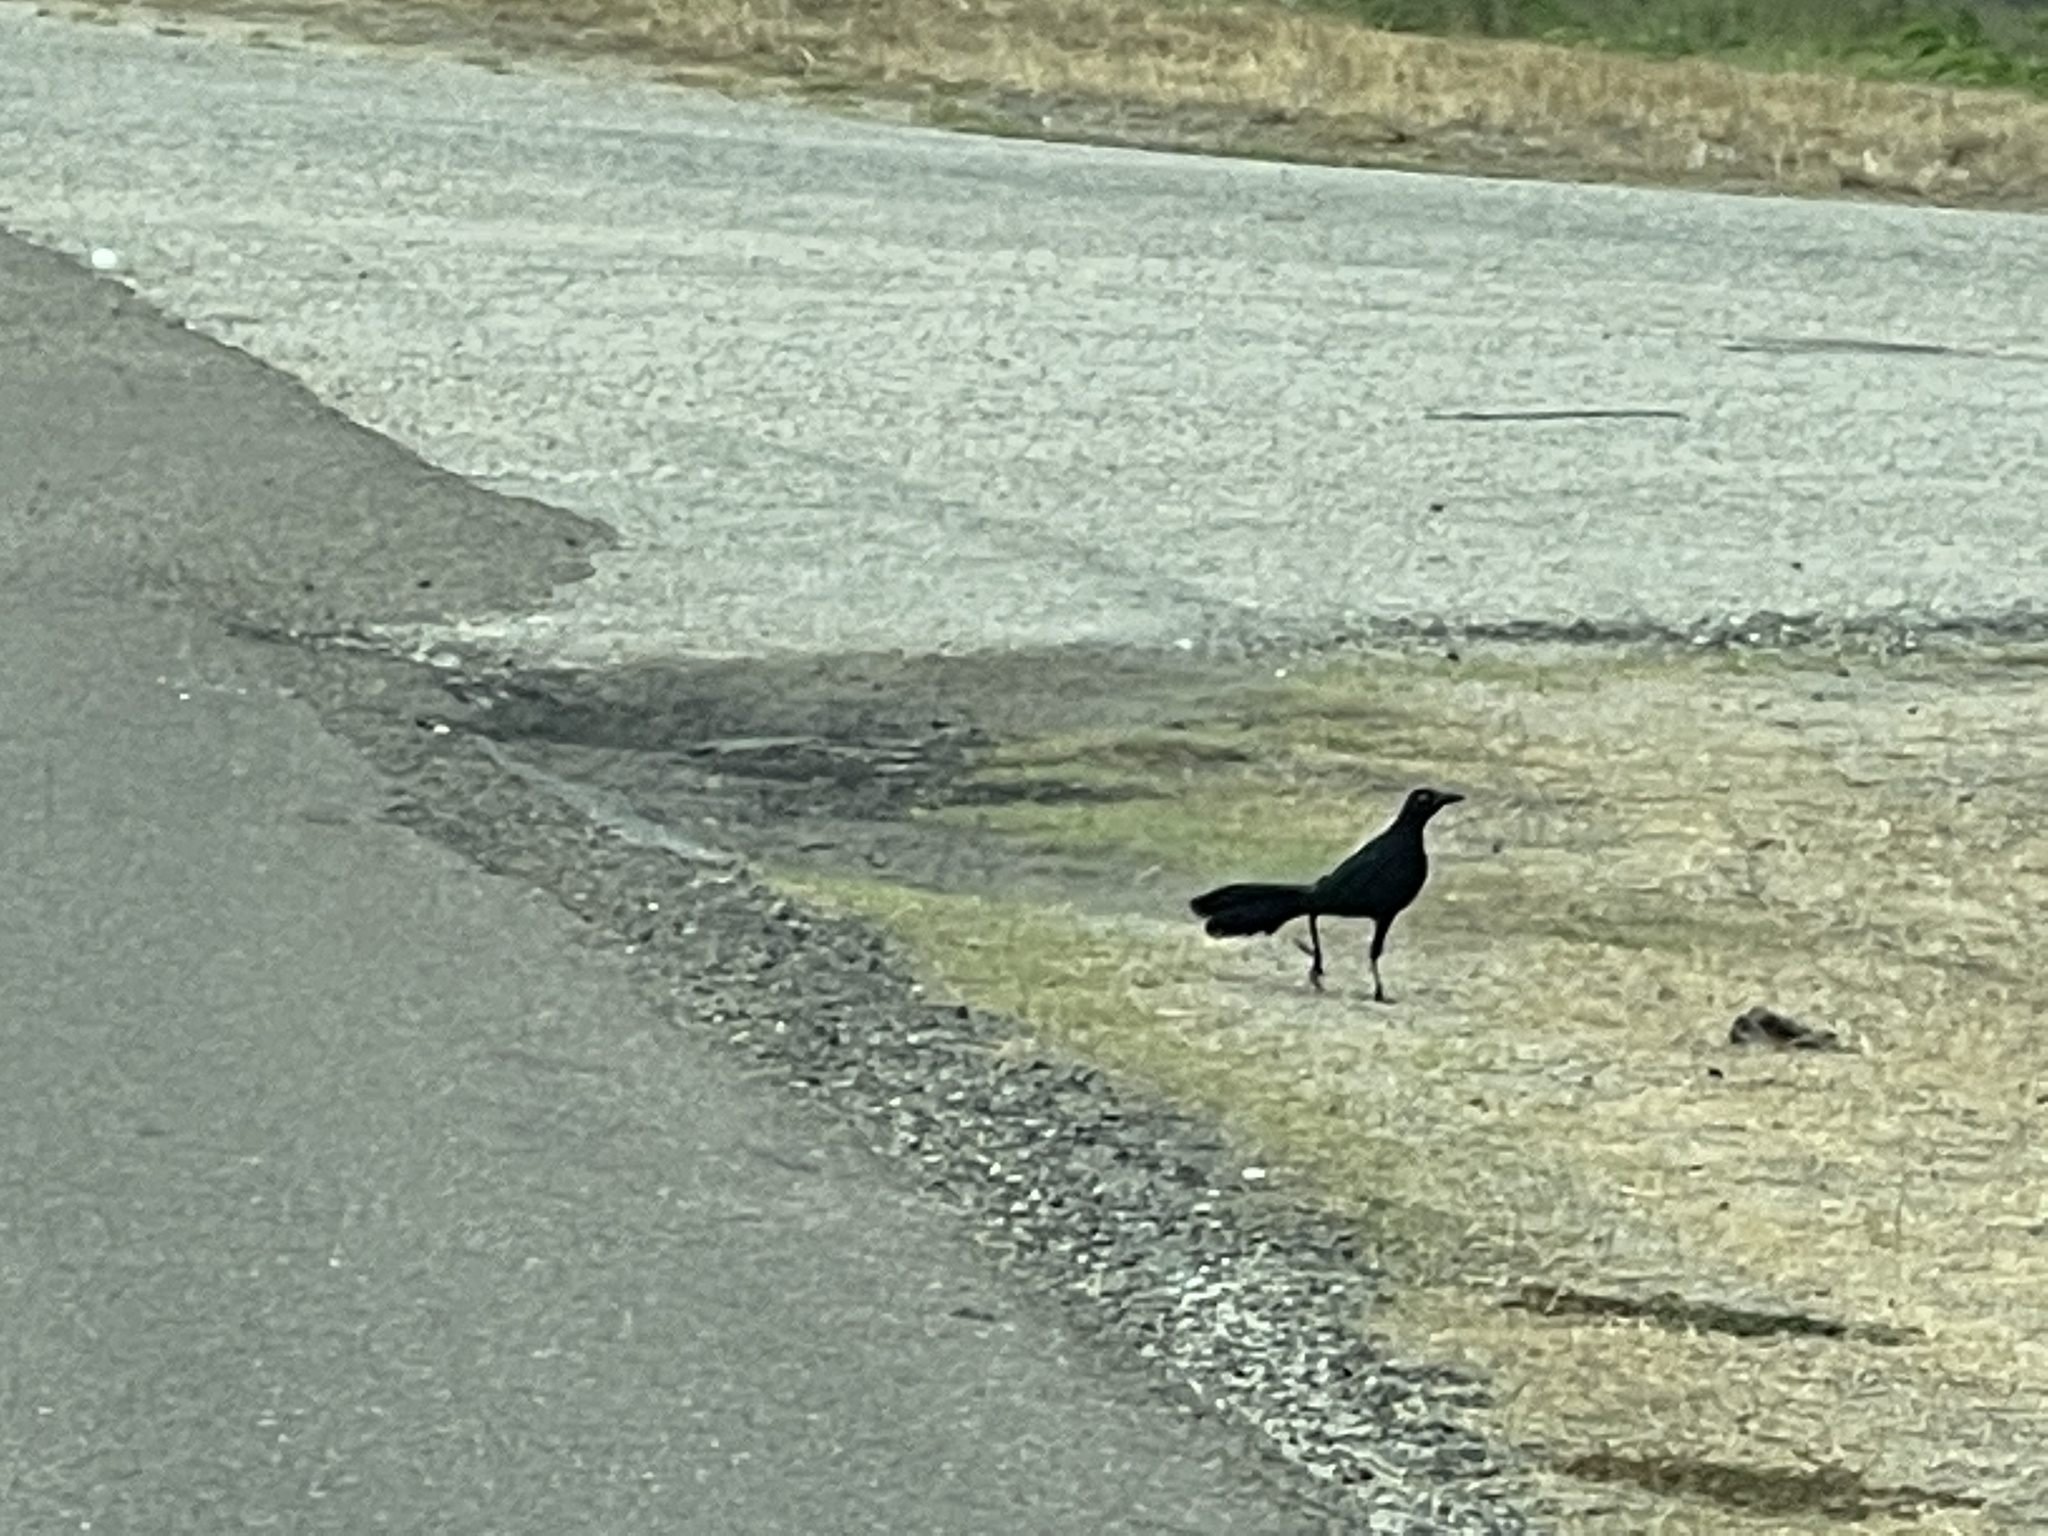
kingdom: Animalia
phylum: Chordata
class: Aves
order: Passeriformes
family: Icteridae
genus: Quiscalus
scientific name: Quiscalus mexicanus
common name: Great-tailed grackle
